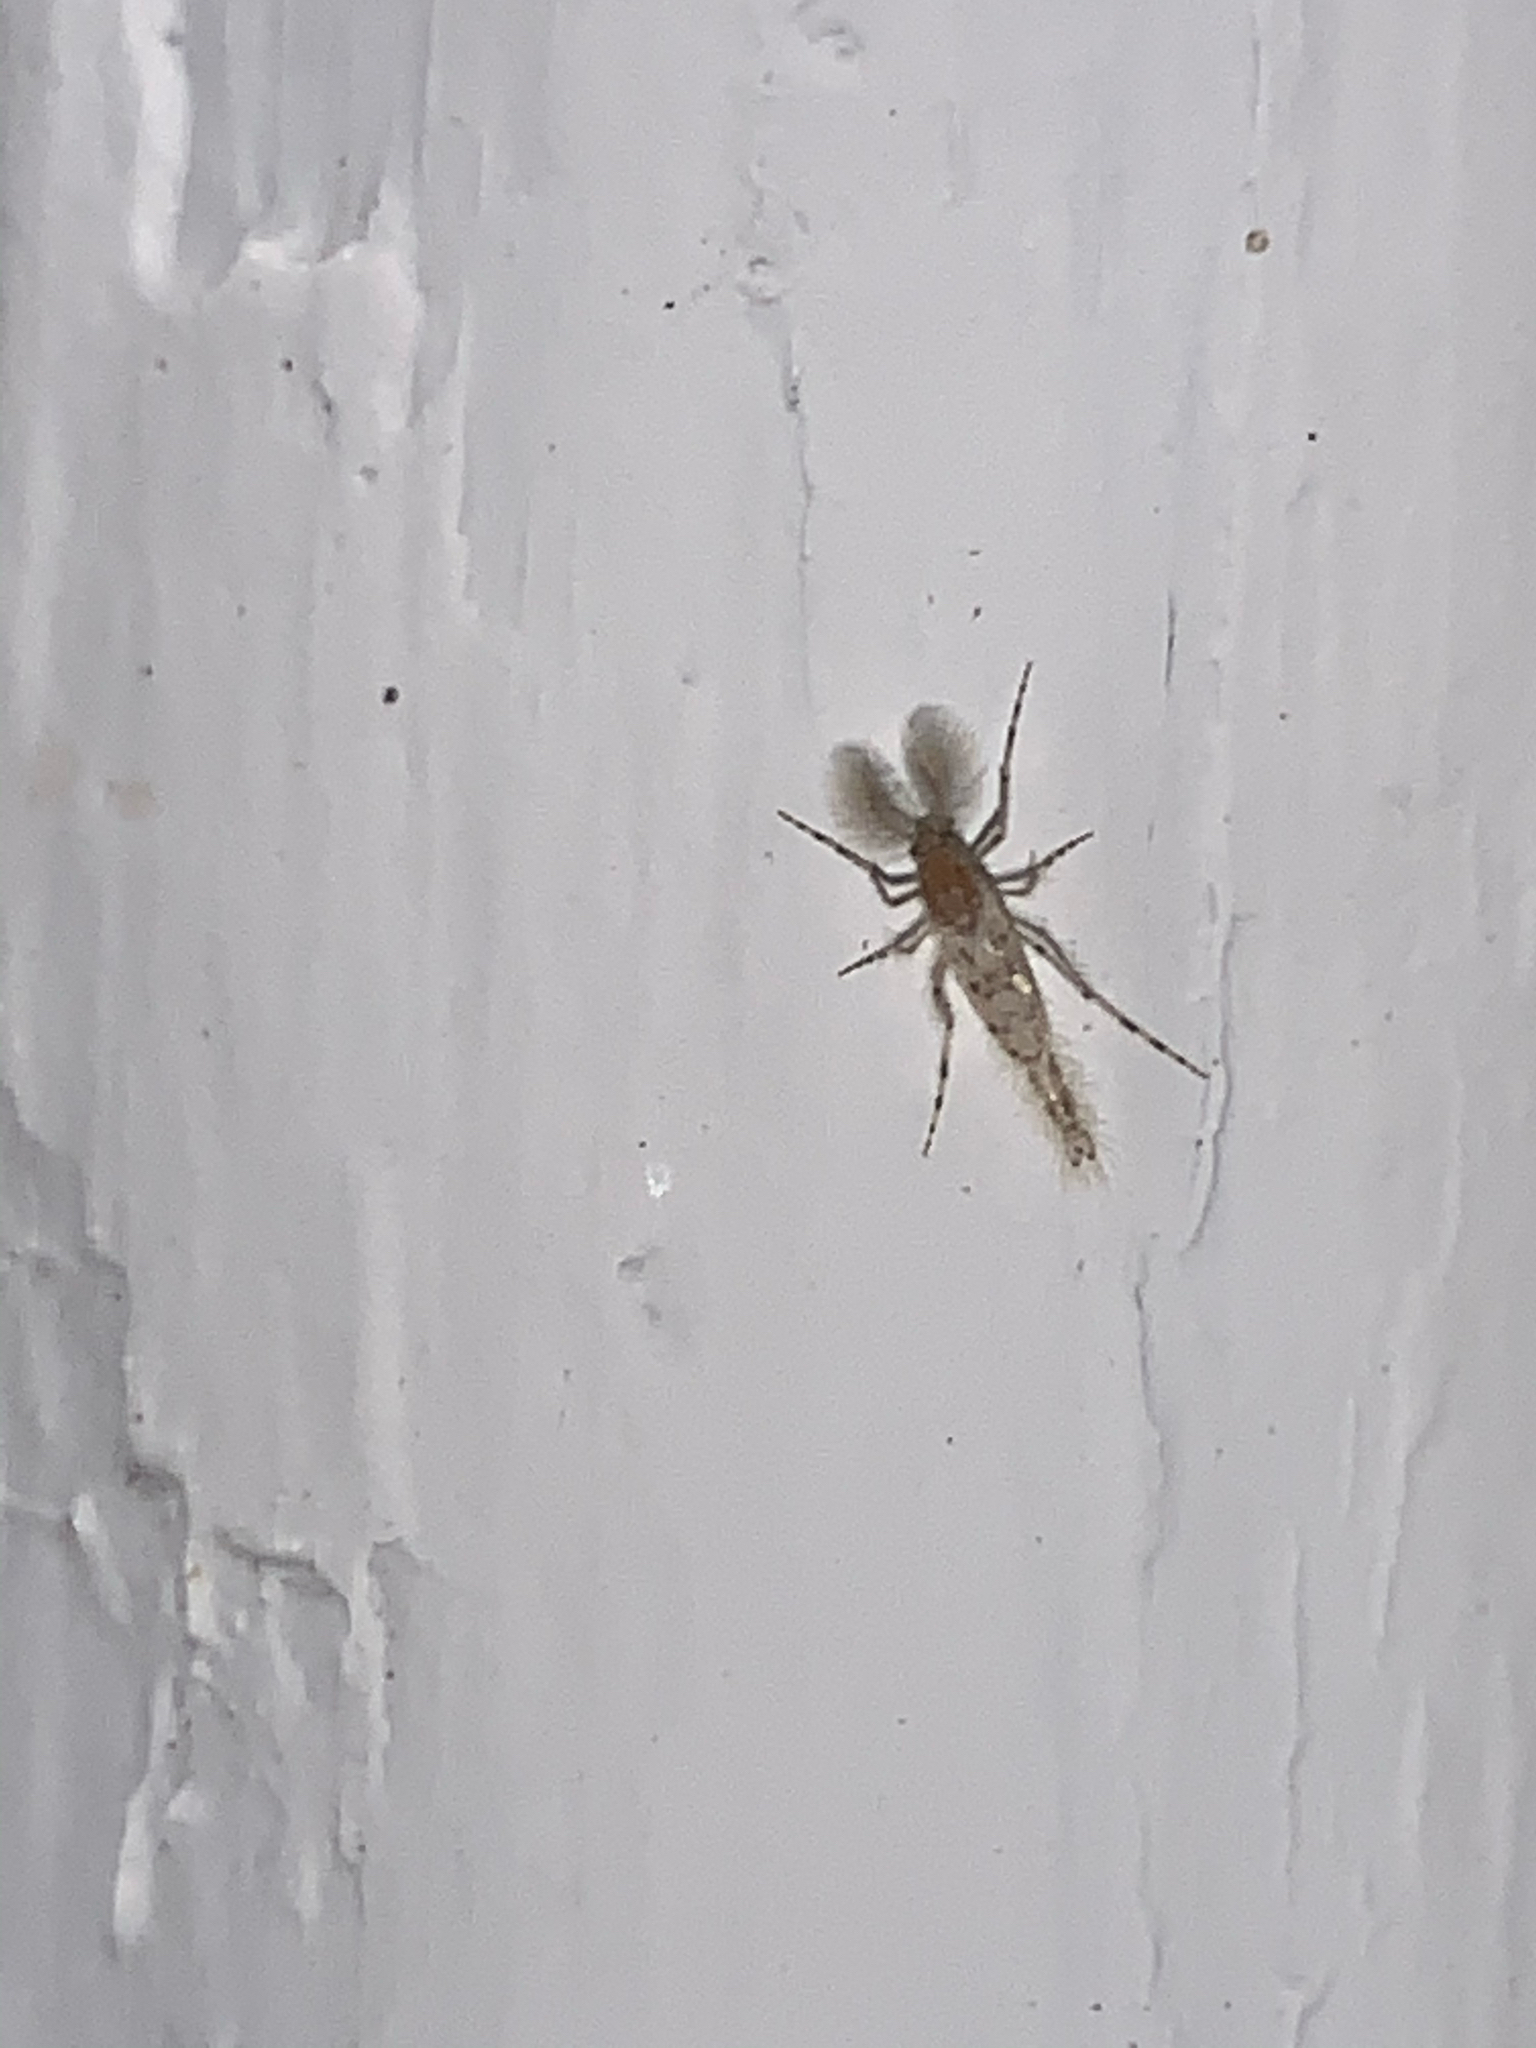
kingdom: Animalia
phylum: Arthropoda
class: Insecta
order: Diptera
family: Chaoboridae
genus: Chaoborus
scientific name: Chaoborus punctipennis
